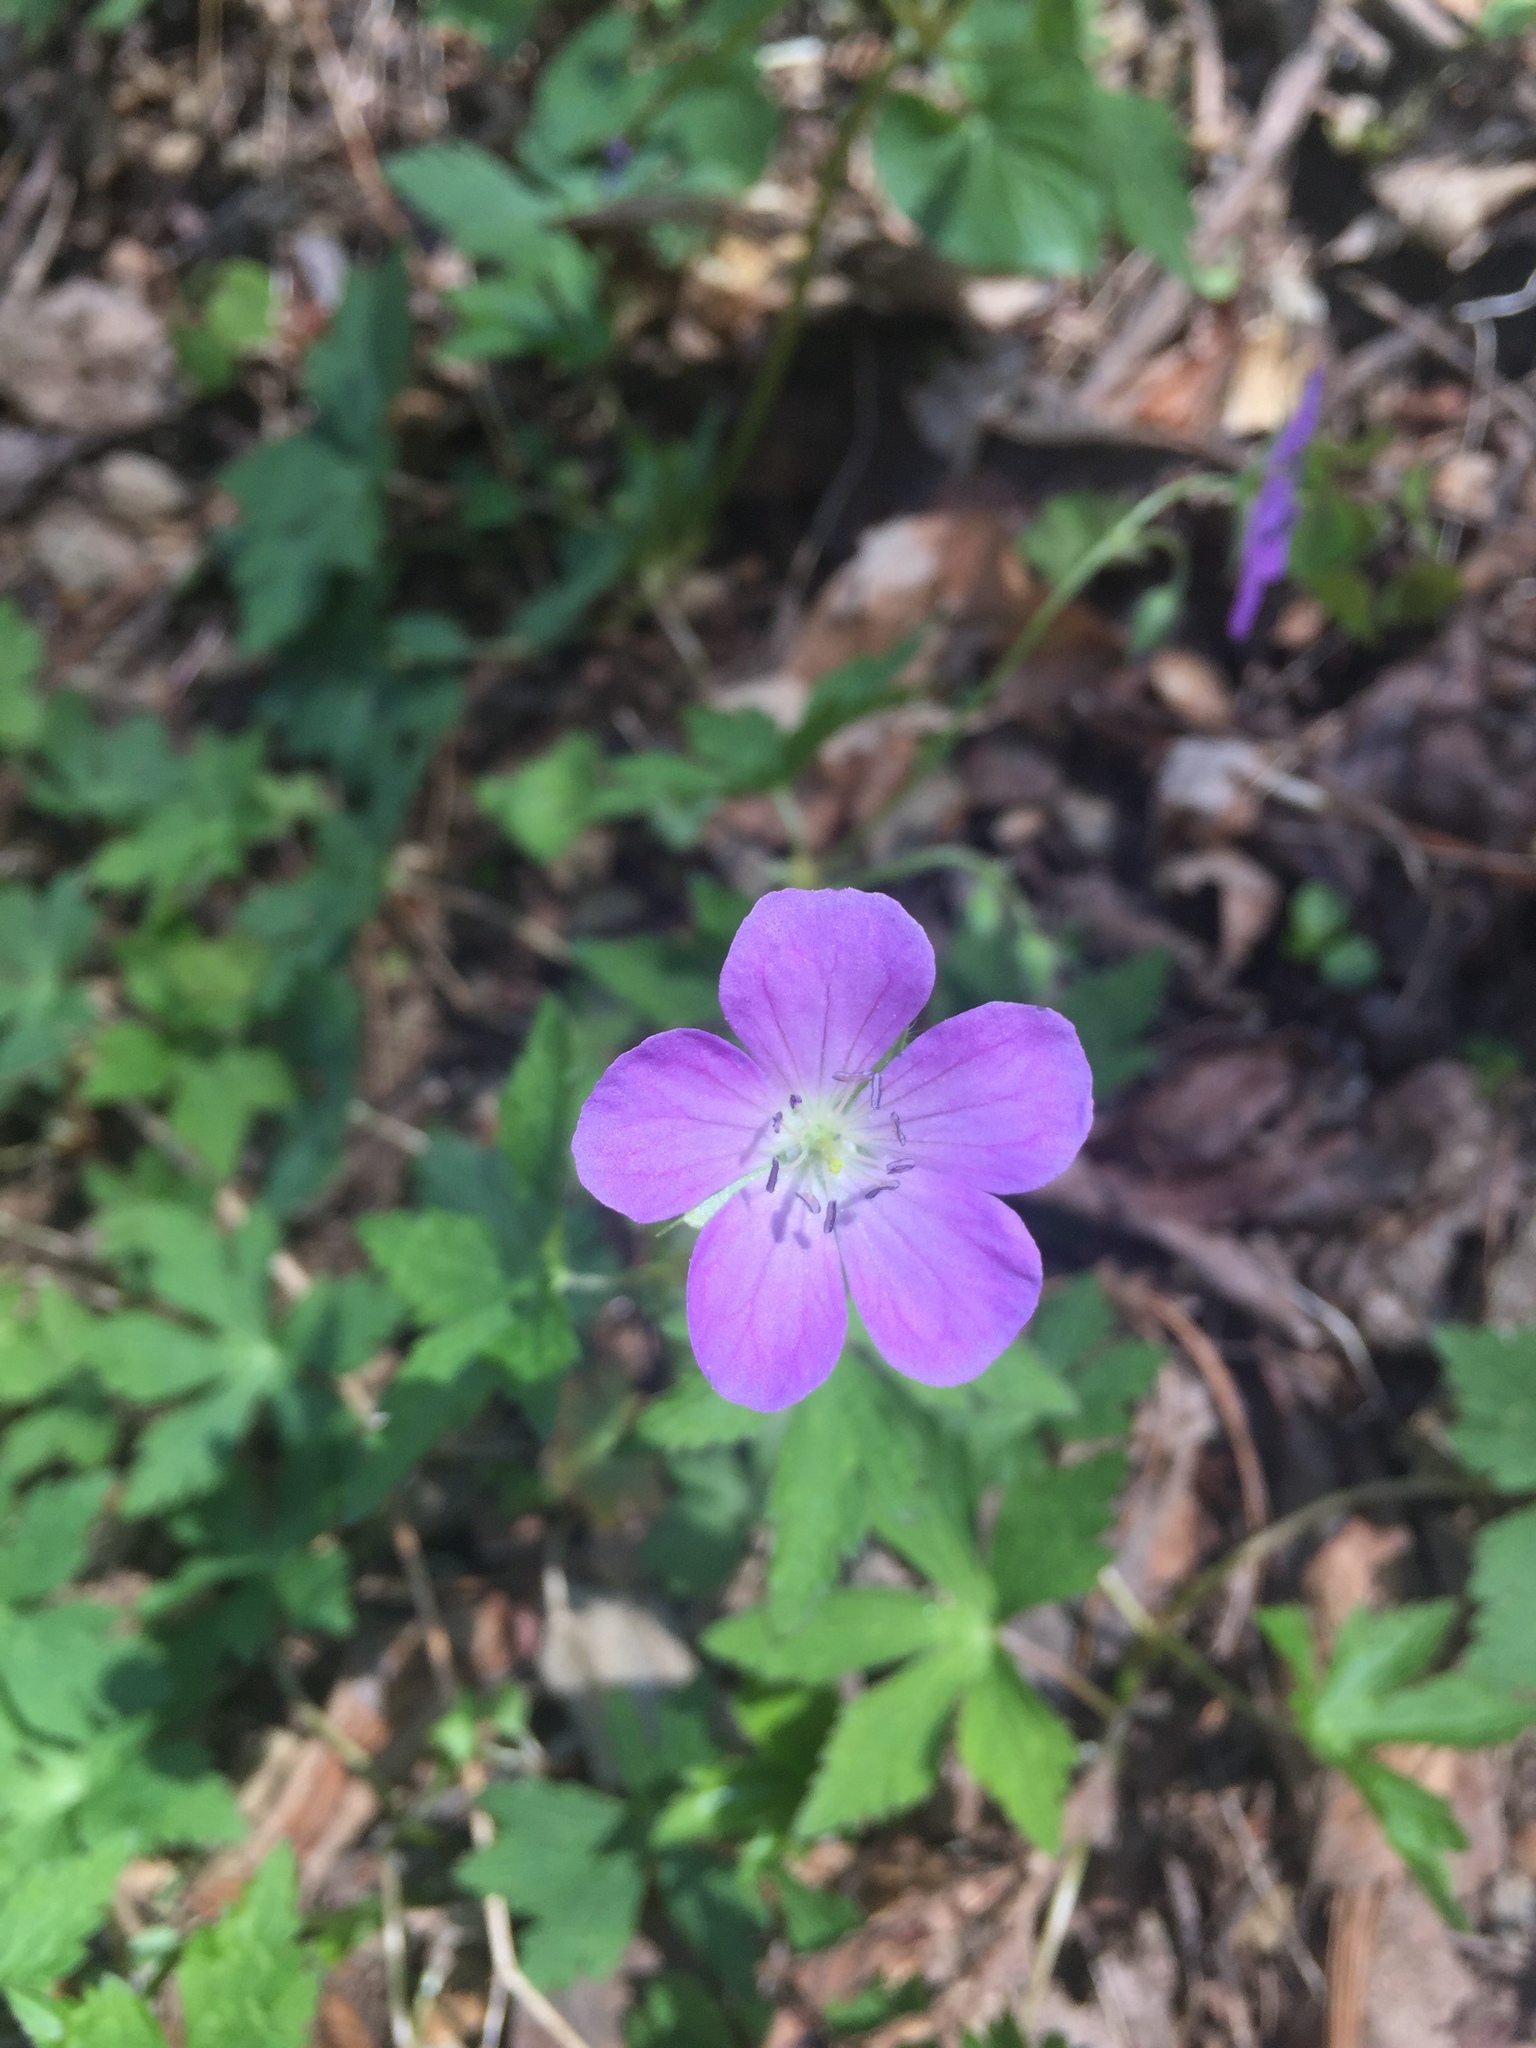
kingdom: Plantae
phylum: Tracheophyta
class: Magnoliopsida
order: Geraniales
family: Geraniaceae
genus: Geranium
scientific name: Geranium maculatum
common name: Spotted geranium
